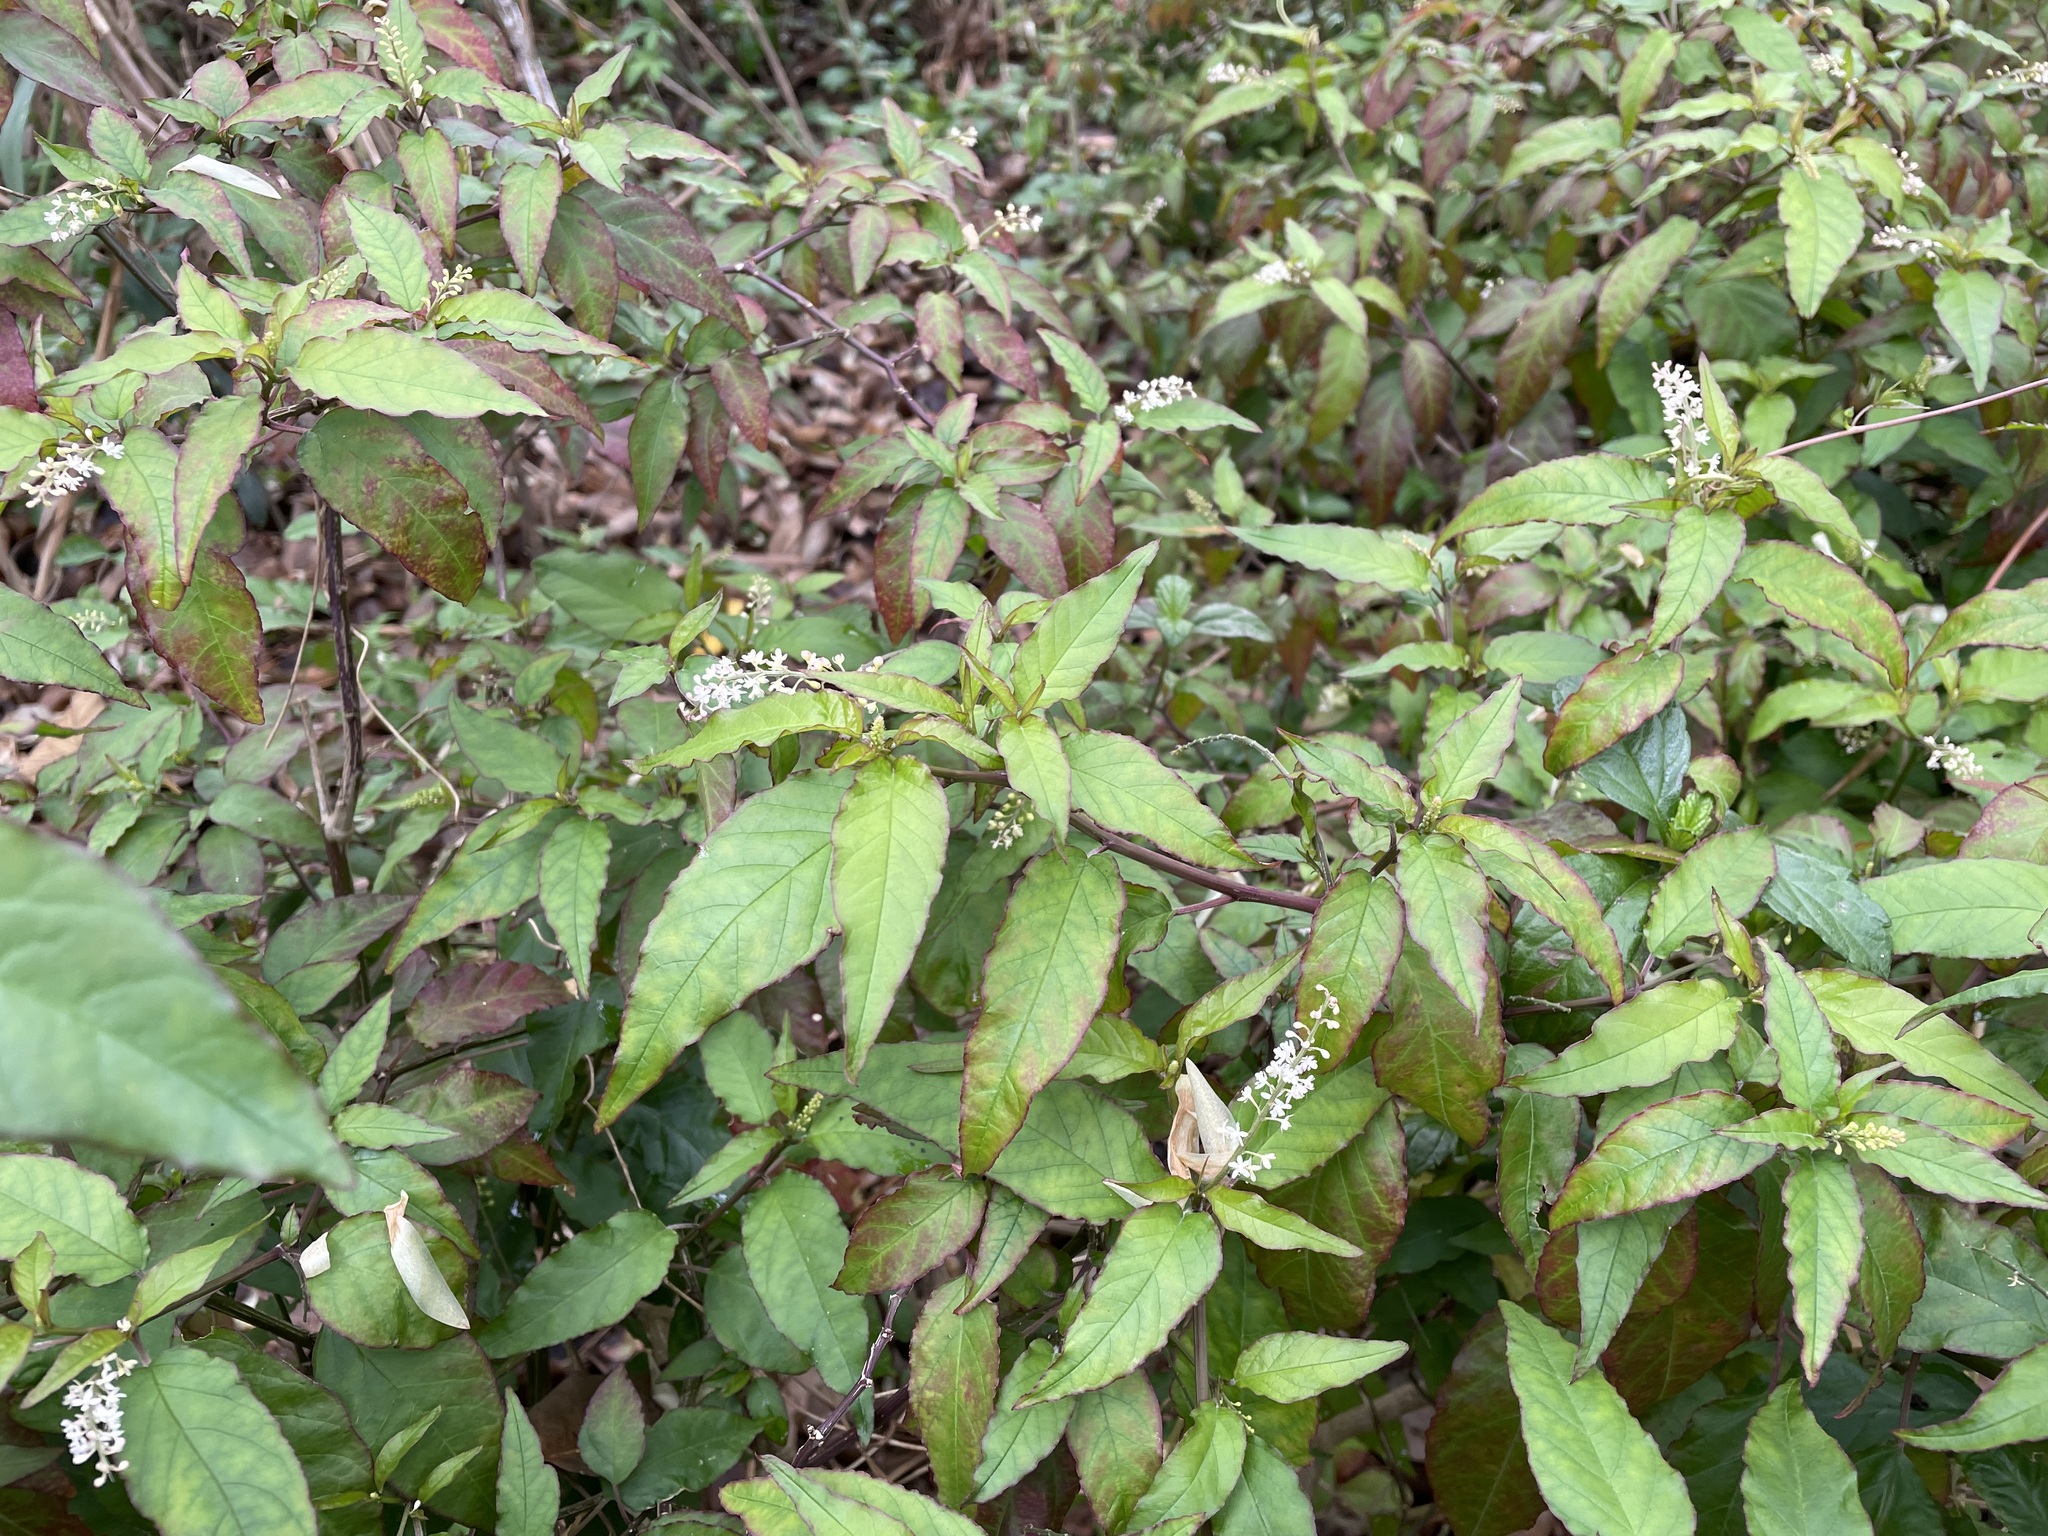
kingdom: Plantae
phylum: Tracheophyta
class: Magnoliopsida
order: Caryophyllales
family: Phytolaccaceae
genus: Rivina
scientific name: Rivina humilis
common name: Rougeplant
